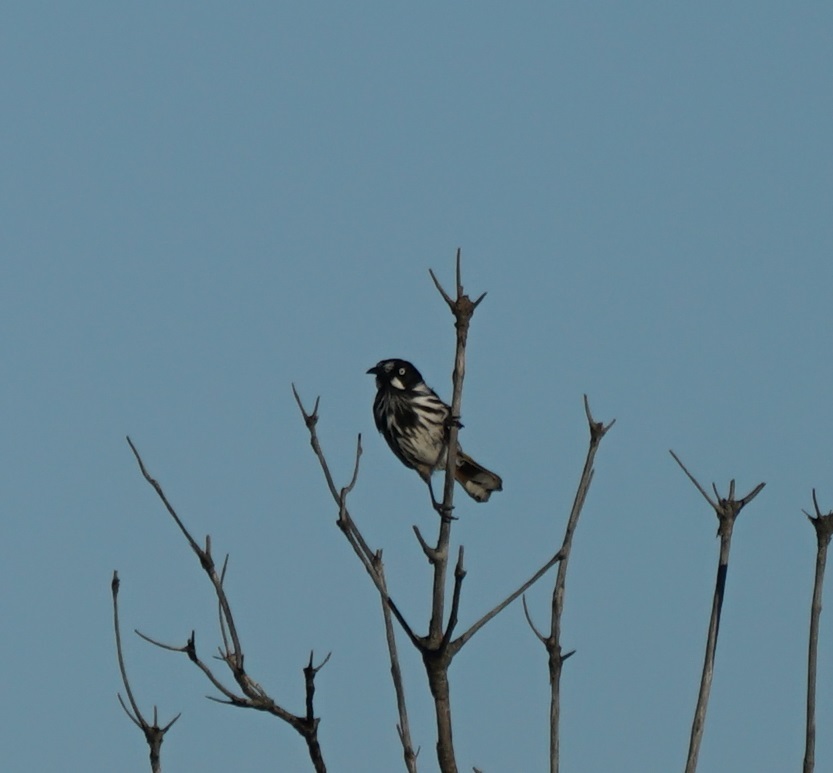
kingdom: Animalia
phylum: Chordata
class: Aves
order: Passeriformes
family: Meliphagidae
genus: Phylidonyris
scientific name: Phylidonyris novaehollandiae
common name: New holland honeyeater
